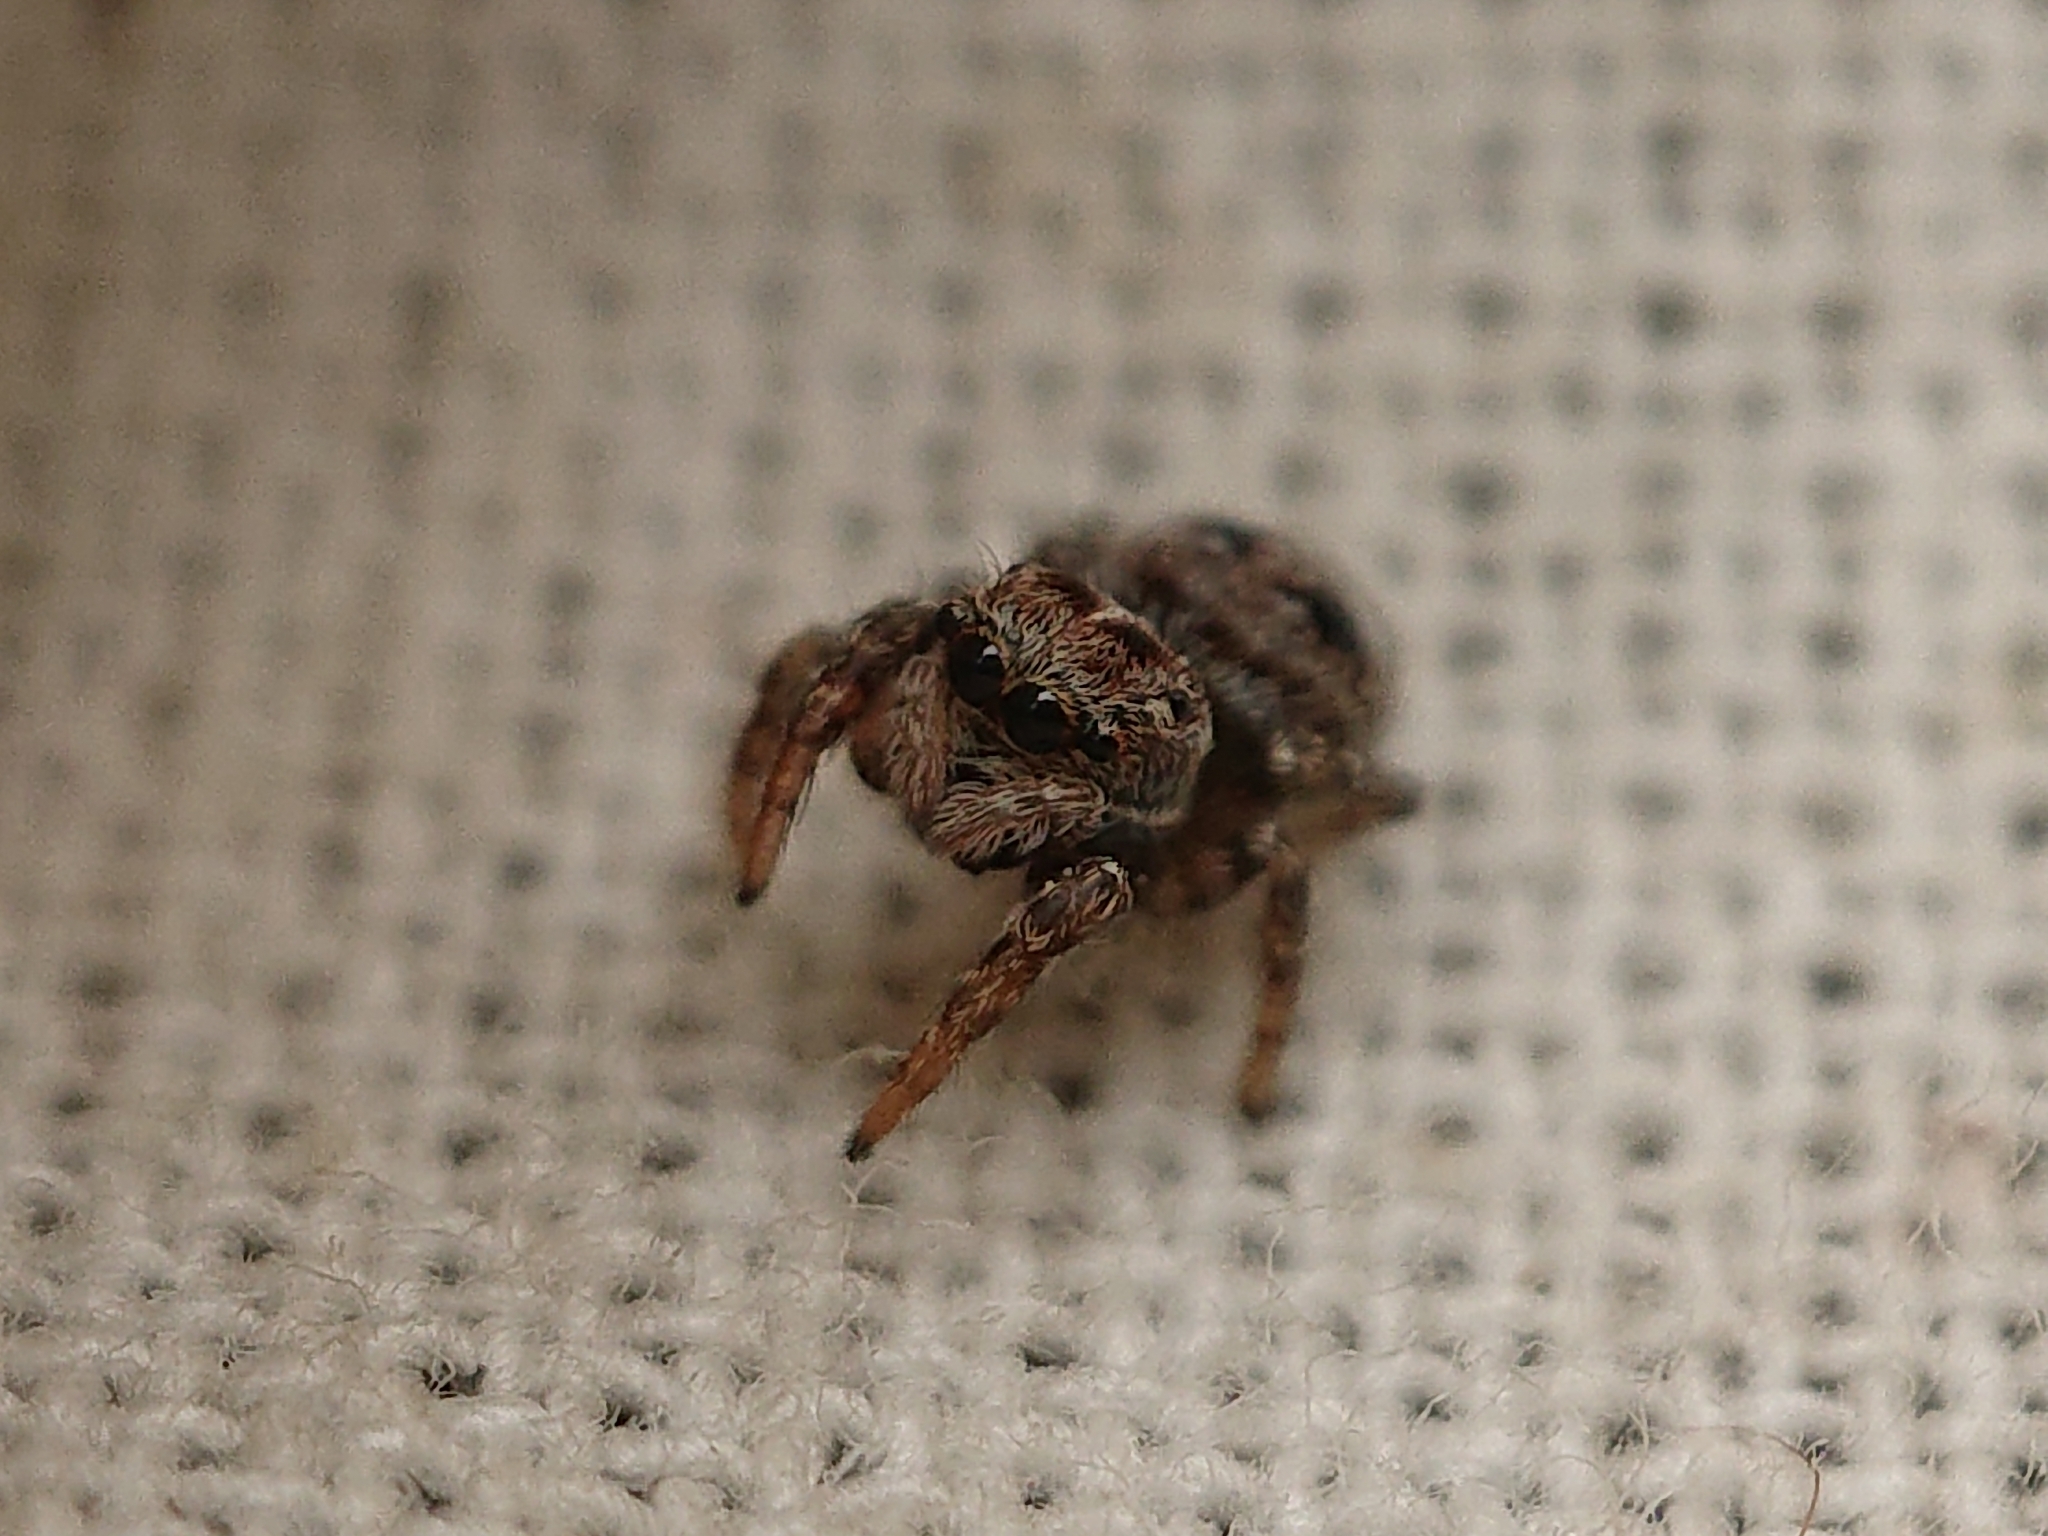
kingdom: Animalia
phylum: Arthropoda
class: Arachnida
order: Araneae
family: Salticidae
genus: Attulus
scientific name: Attulus floricola
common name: Flower jumping spider
